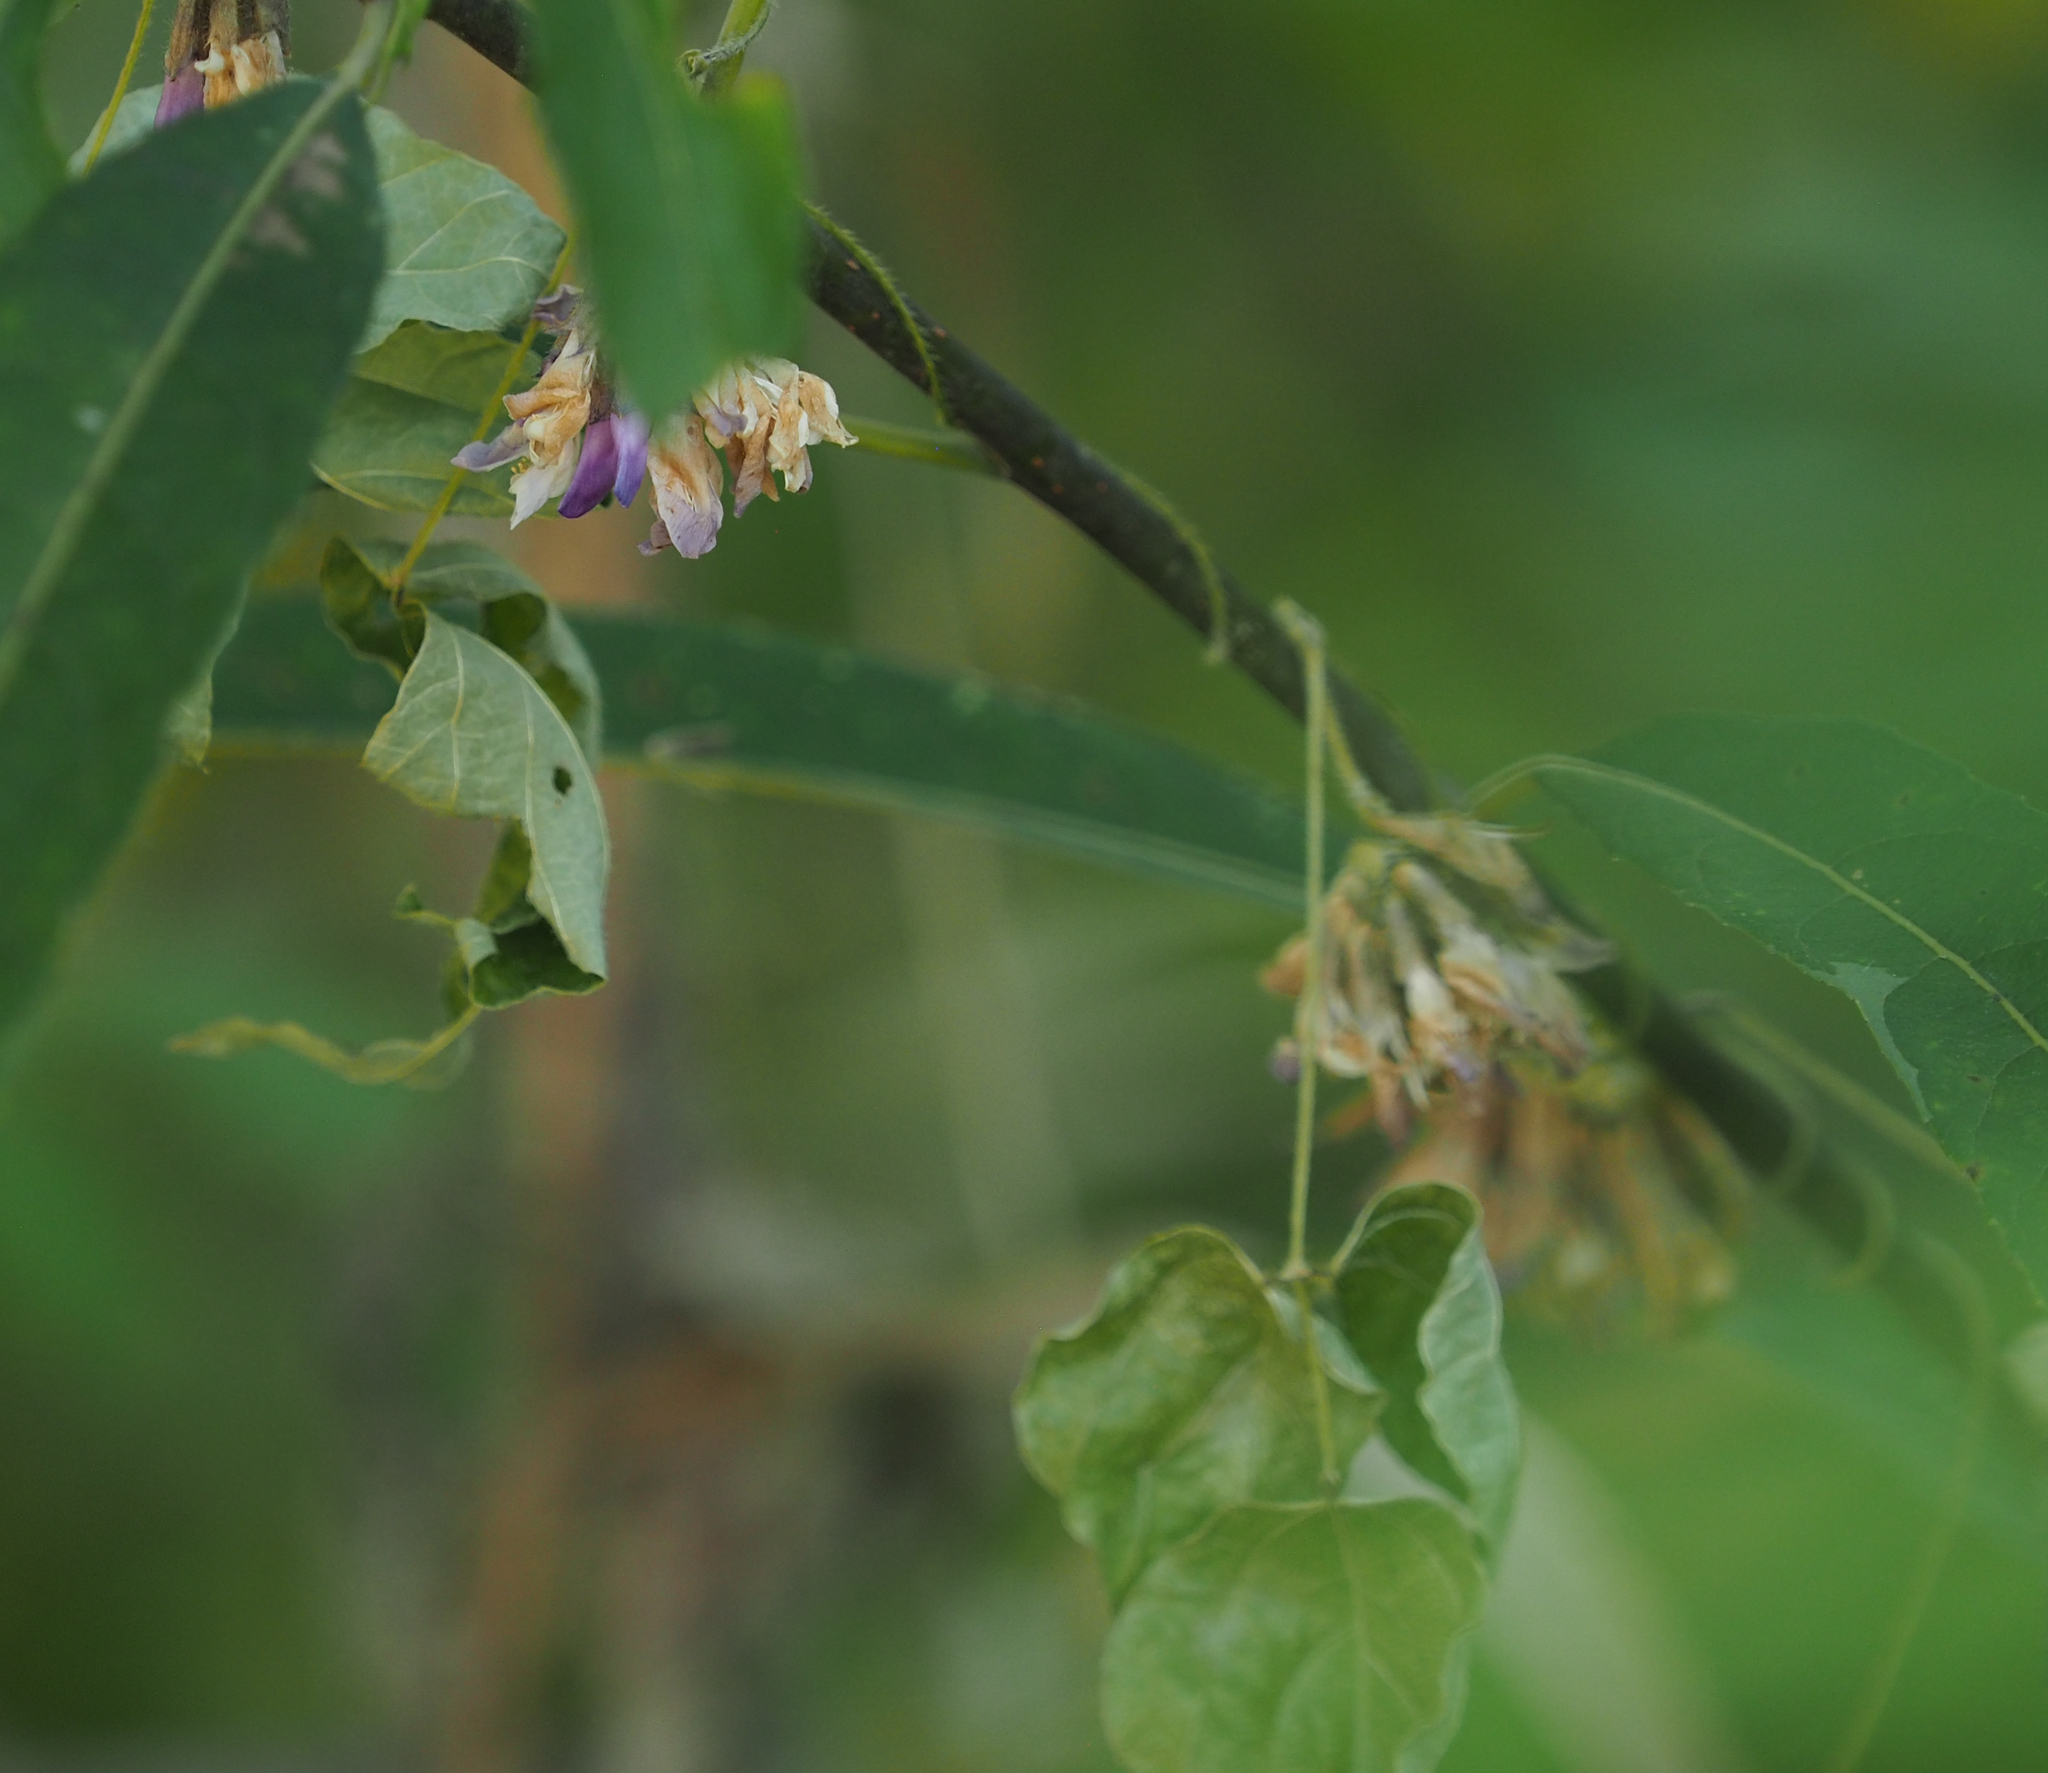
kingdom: Plantae
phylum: Tracheophyta
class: Magnoliopsida
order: Fabales
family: Fabaceae
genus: Amphicarpaea
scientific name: Amphicarpaea bracteata
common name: American hog peanut
